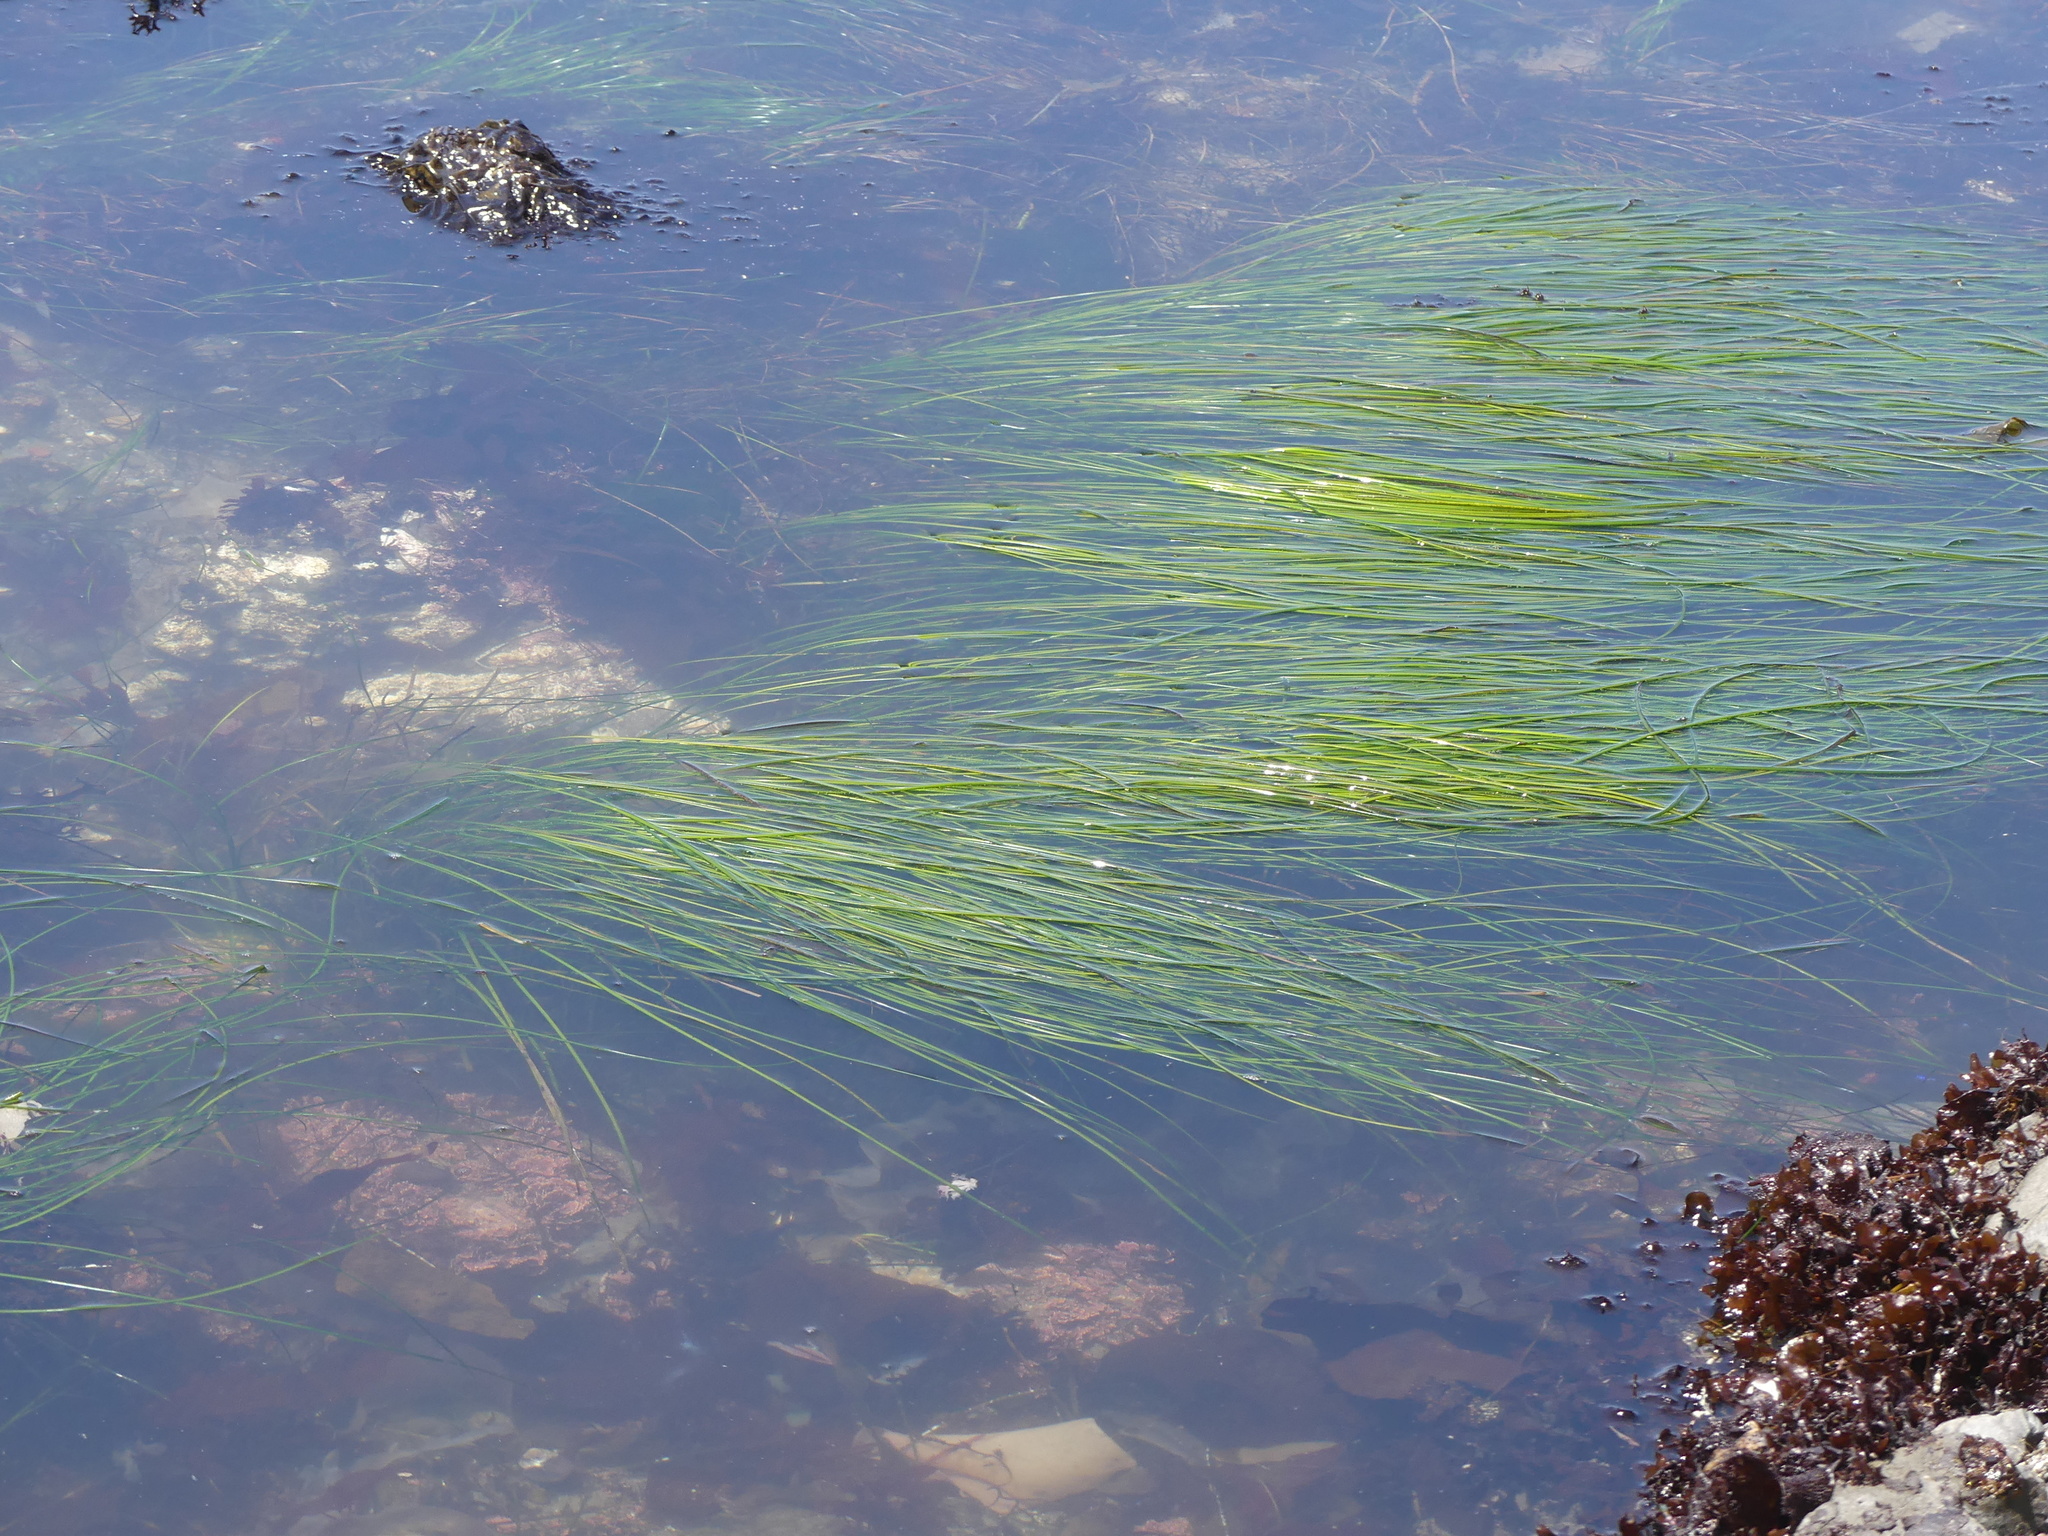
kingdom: Plantae
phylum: Tracheophyta
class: Liliopsida
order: Alismatales
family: Zosteraceae
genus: Phyllospadix
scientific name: Phyllospadix torreyi
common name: Surfgrass
